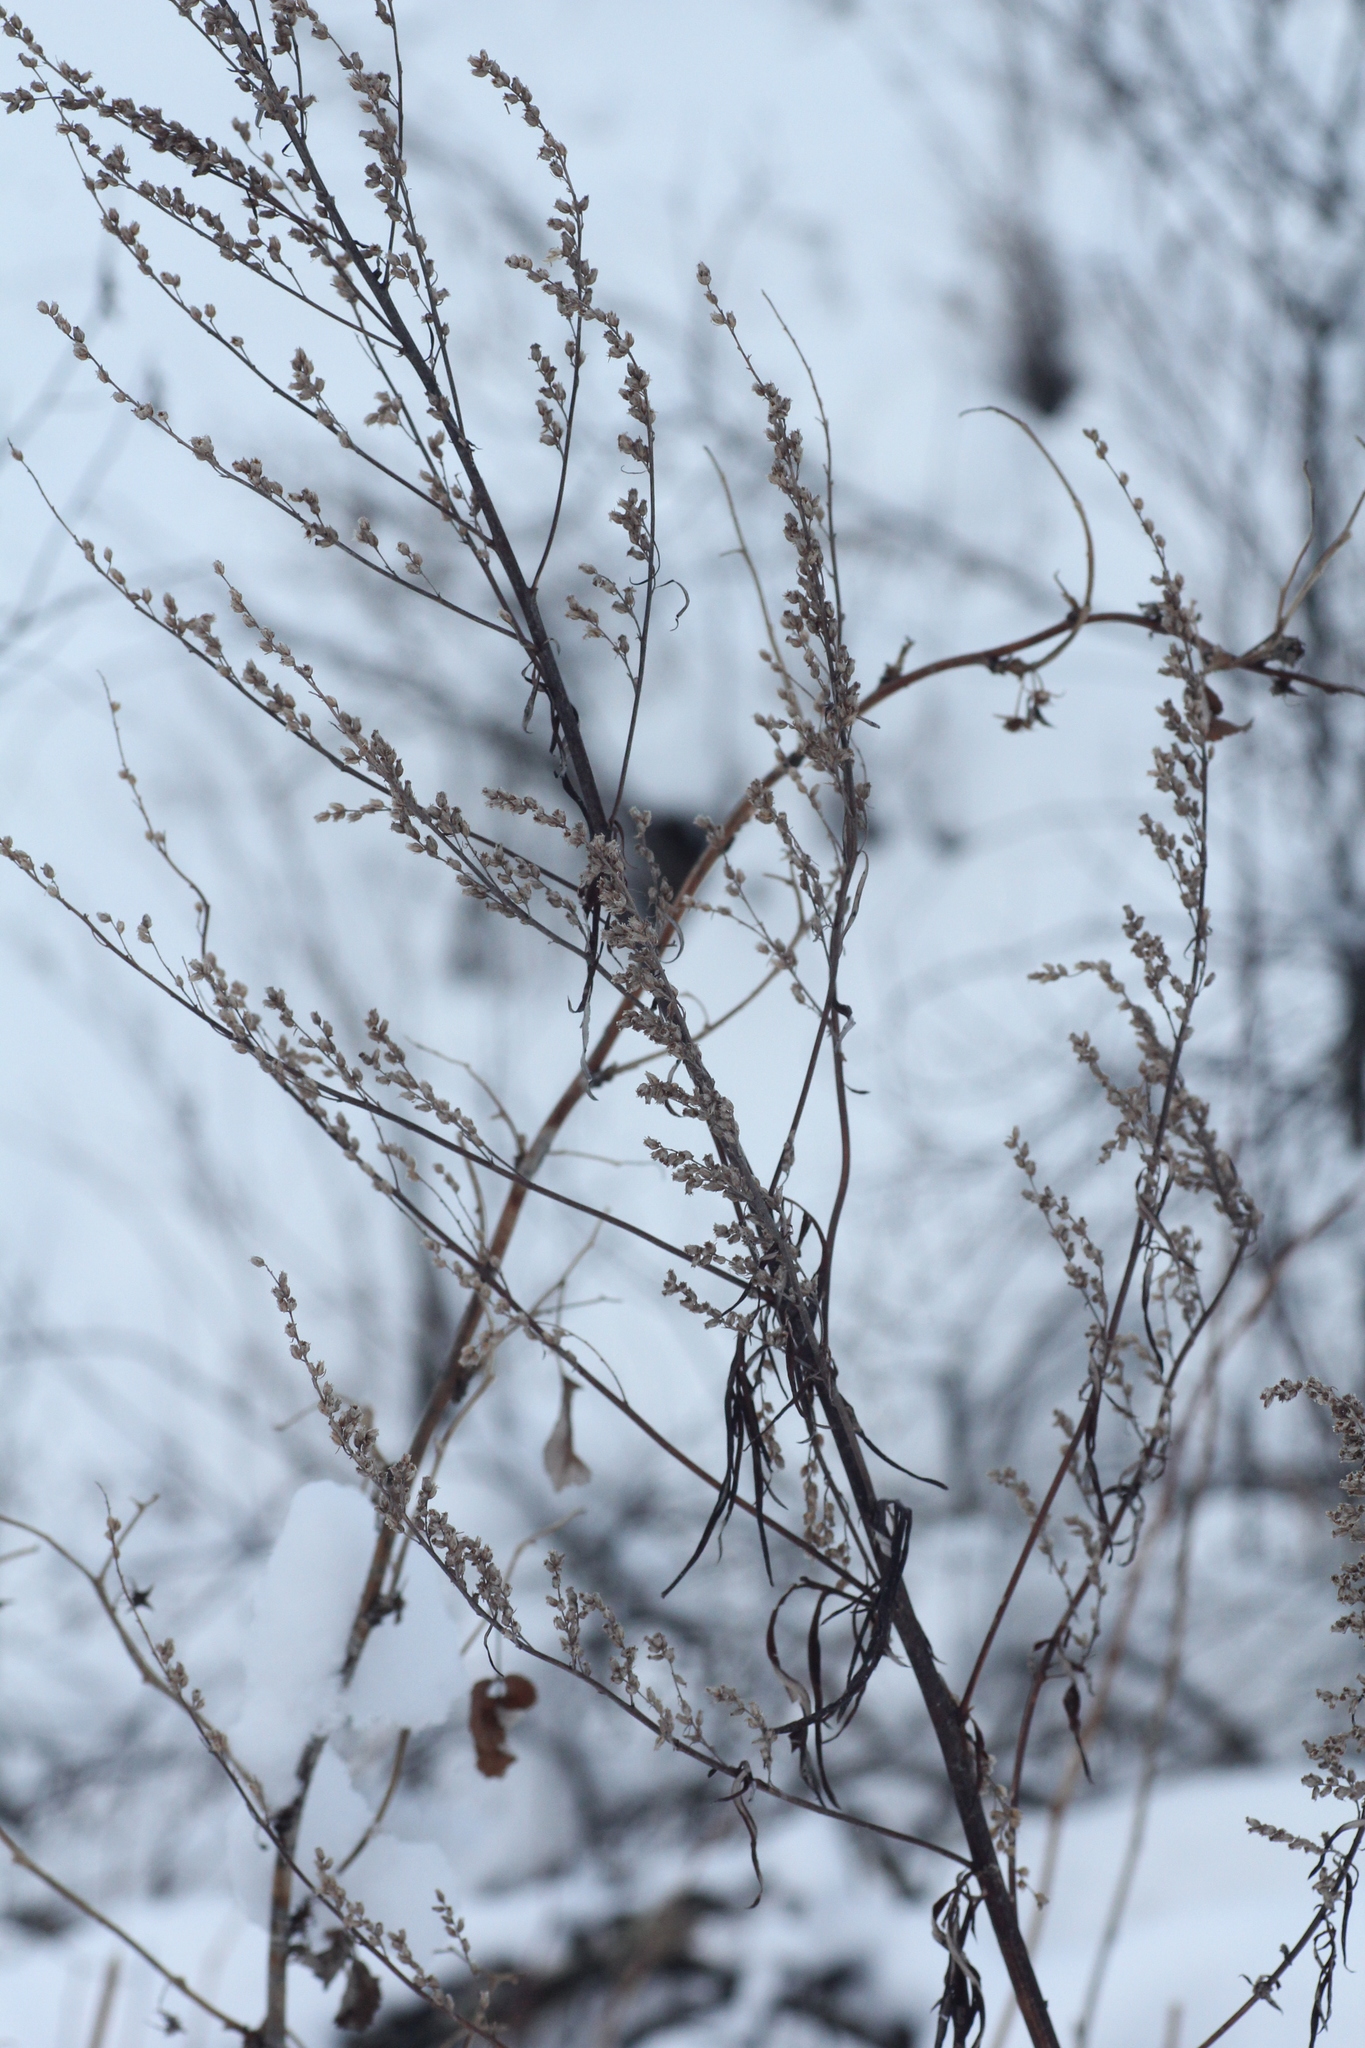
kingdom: Plantae
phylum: Tracheophyta
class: Magnoliopsida
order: Asterales
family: Asteraceae
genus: Artemisia
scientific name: Artemisia vulgaris
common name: Mugwort
